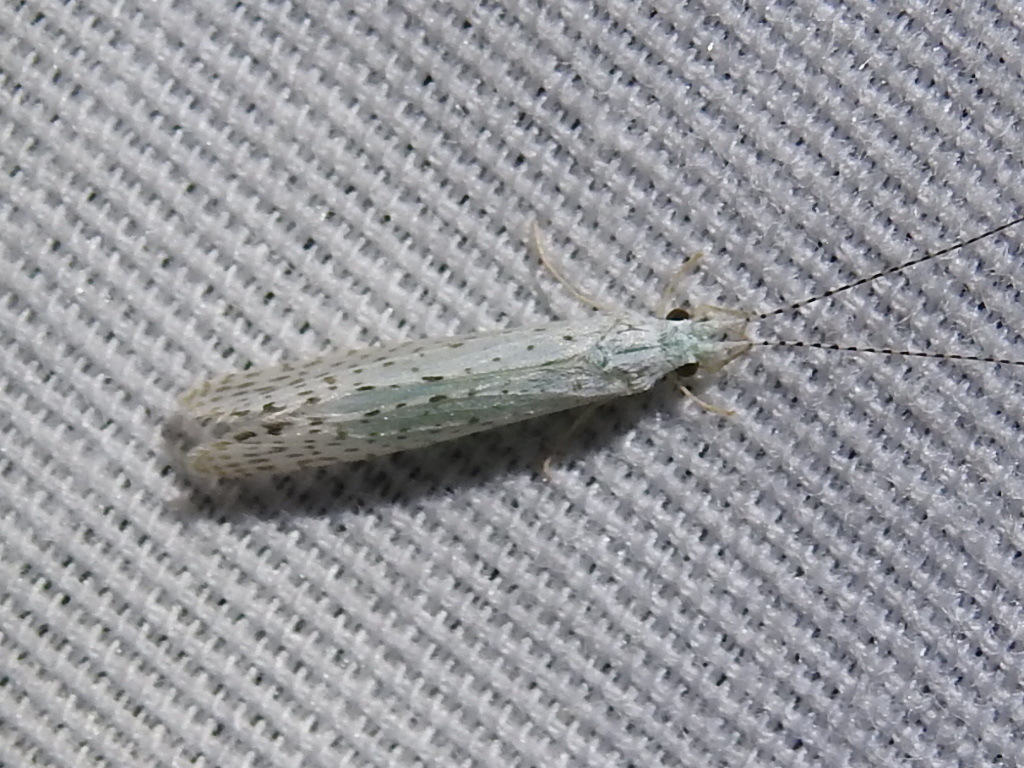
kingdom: Animalia
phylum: Arthropoda
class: Insecta
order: Trichoptera
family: Leptoceridae
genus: Nectopsyche
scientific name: Nectopsyche candida
